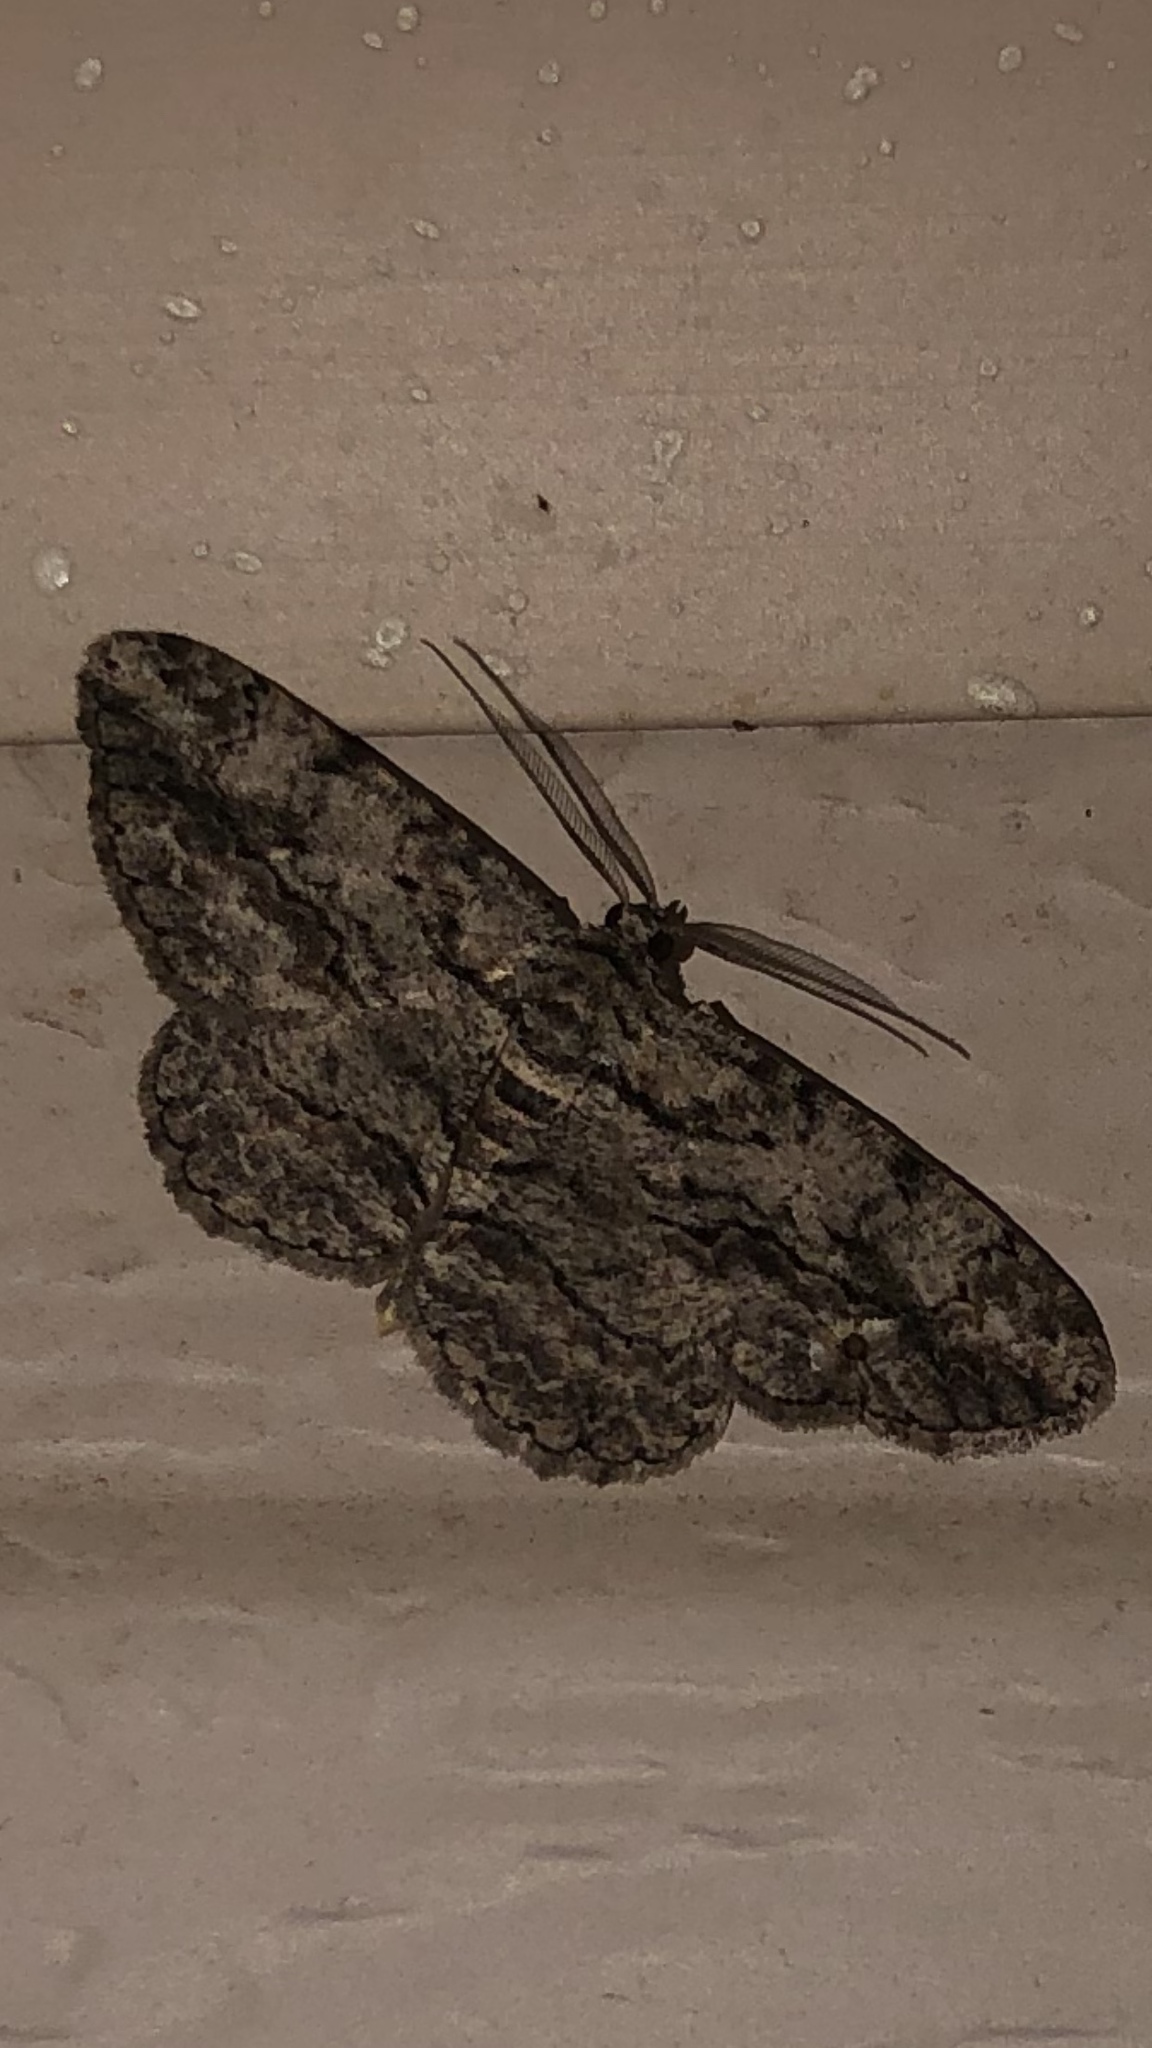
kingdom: Animalia
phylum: Arthropoda
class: Insecta
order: Lepidoptera
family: Geometridae
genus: Anavitrinella
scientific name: Anavitrinella pampinaria
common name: Common gray
